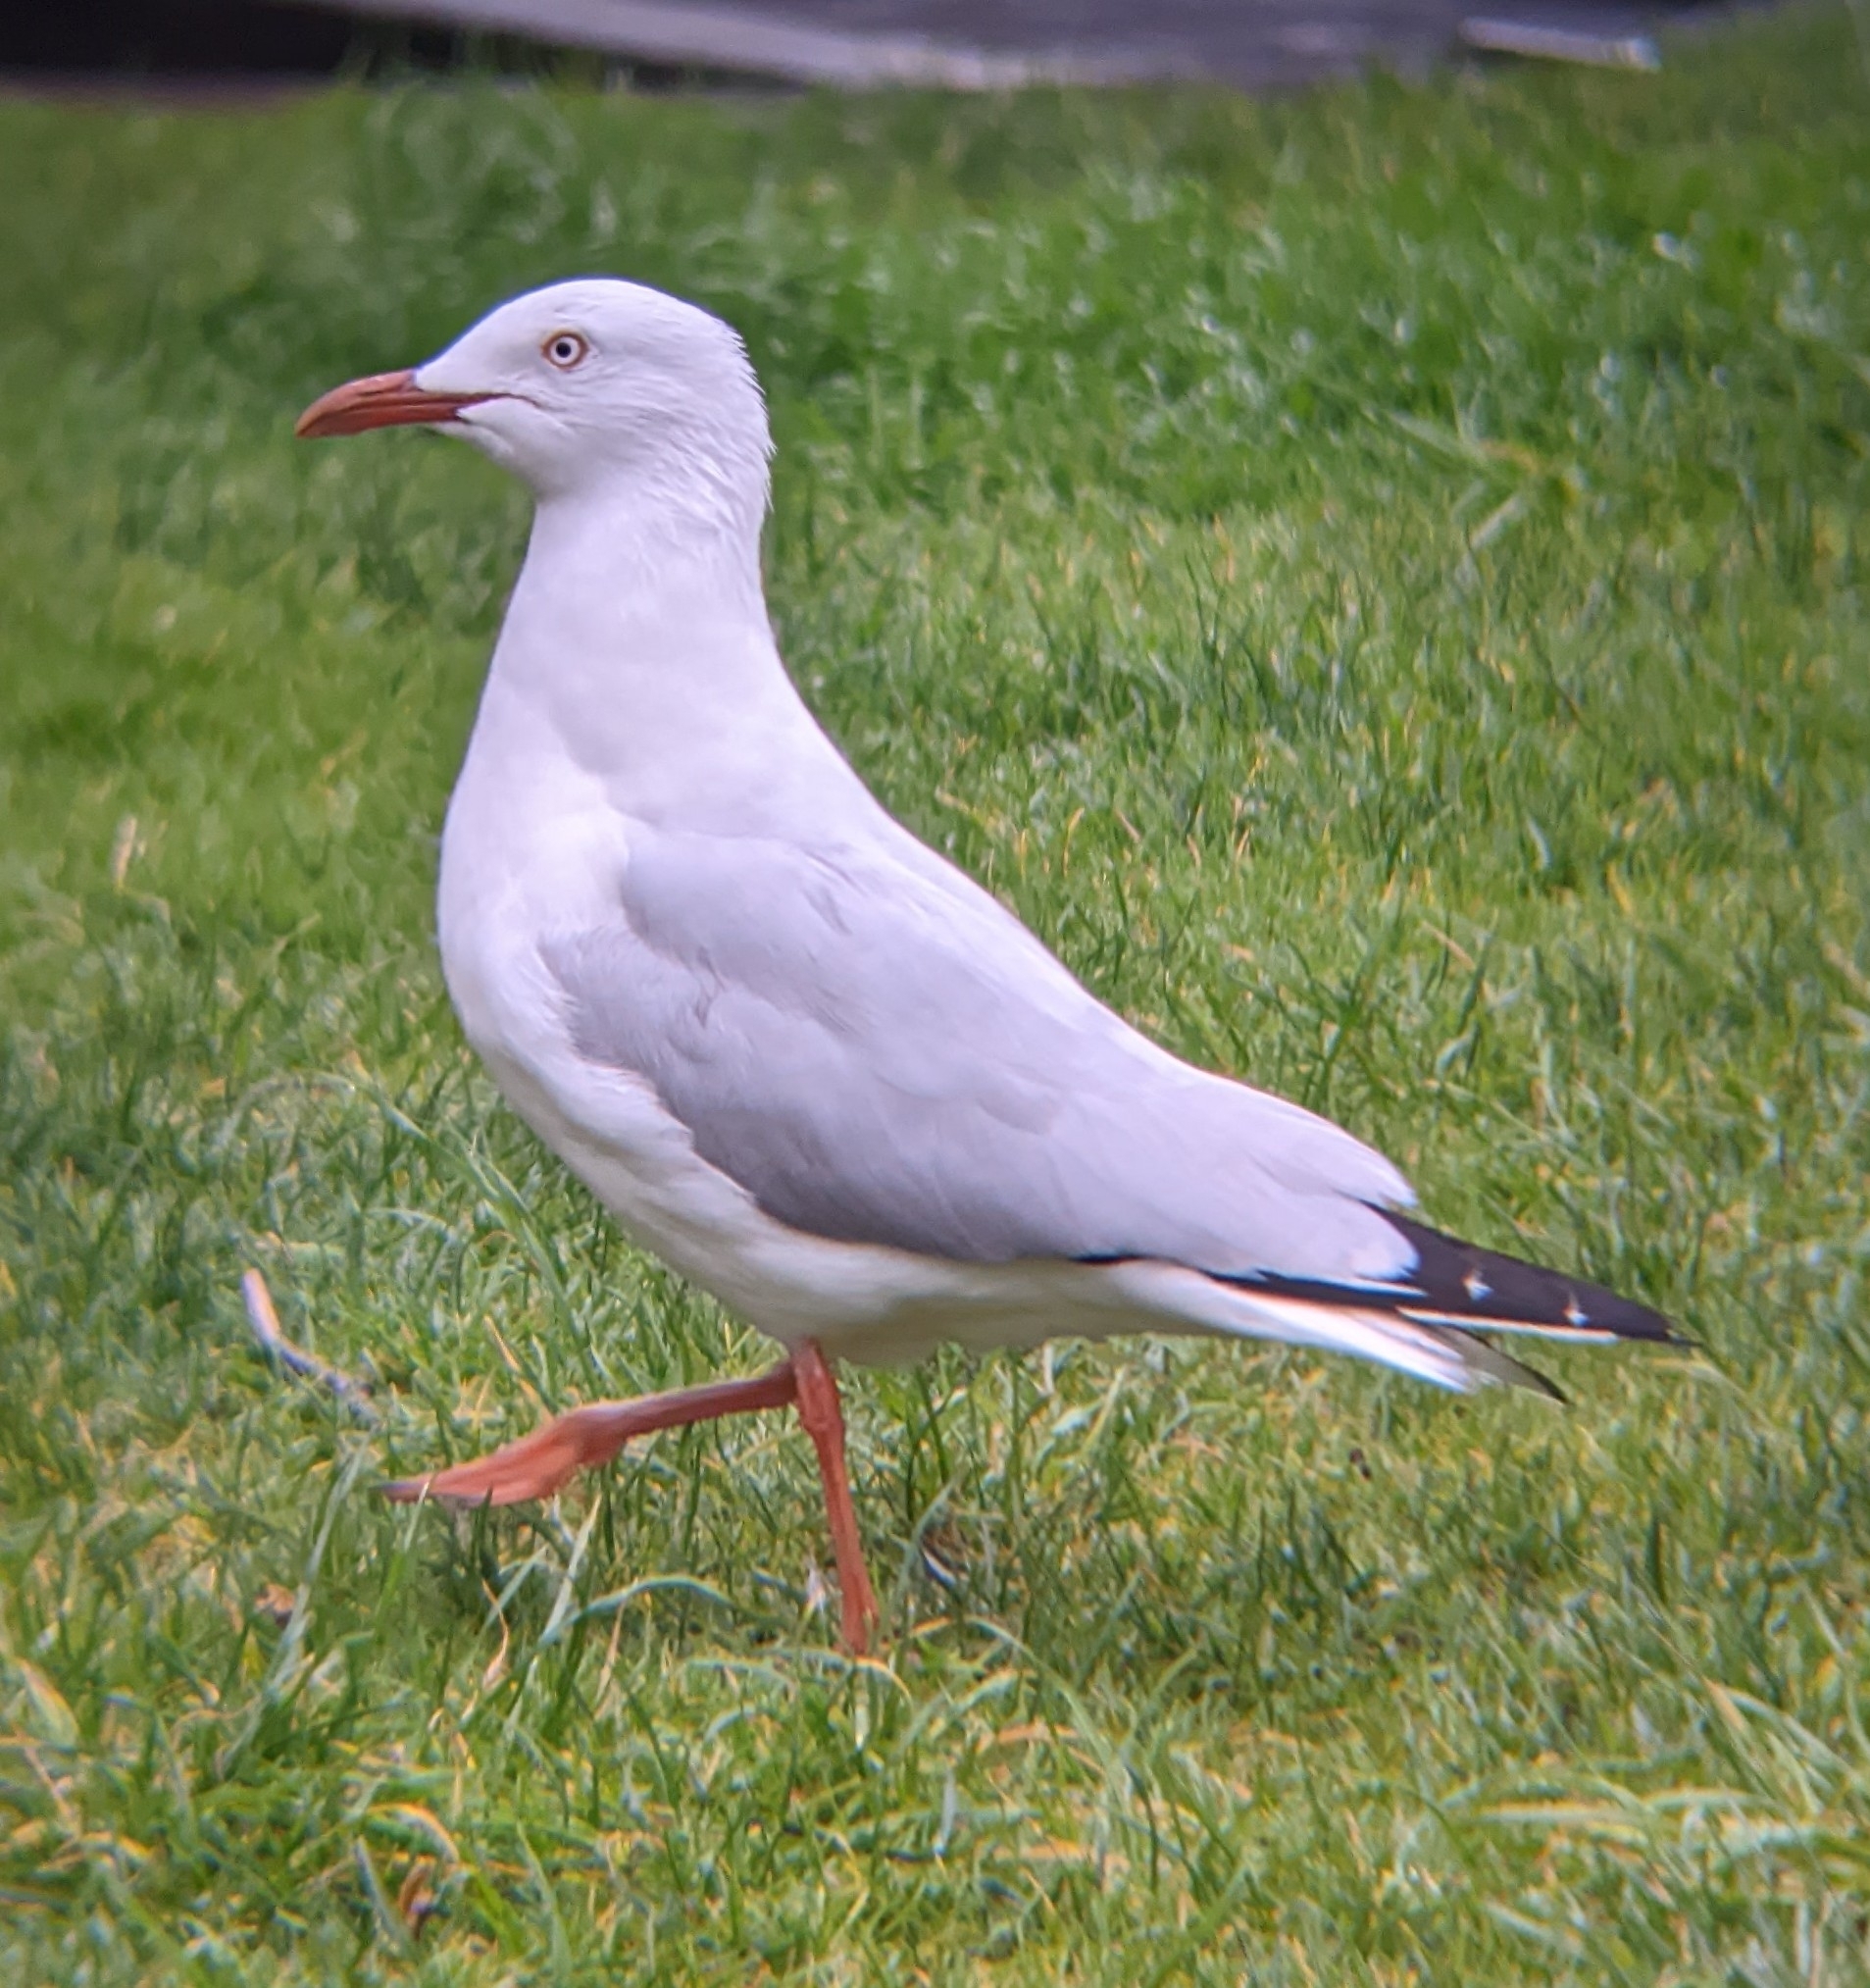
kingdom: Animalia
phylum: Chordata
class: Aves
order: Charadriiformes
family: Laridae
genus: Chroicocephalus
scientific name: Chroicocephalus novaehollandiae
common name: Silver gull
